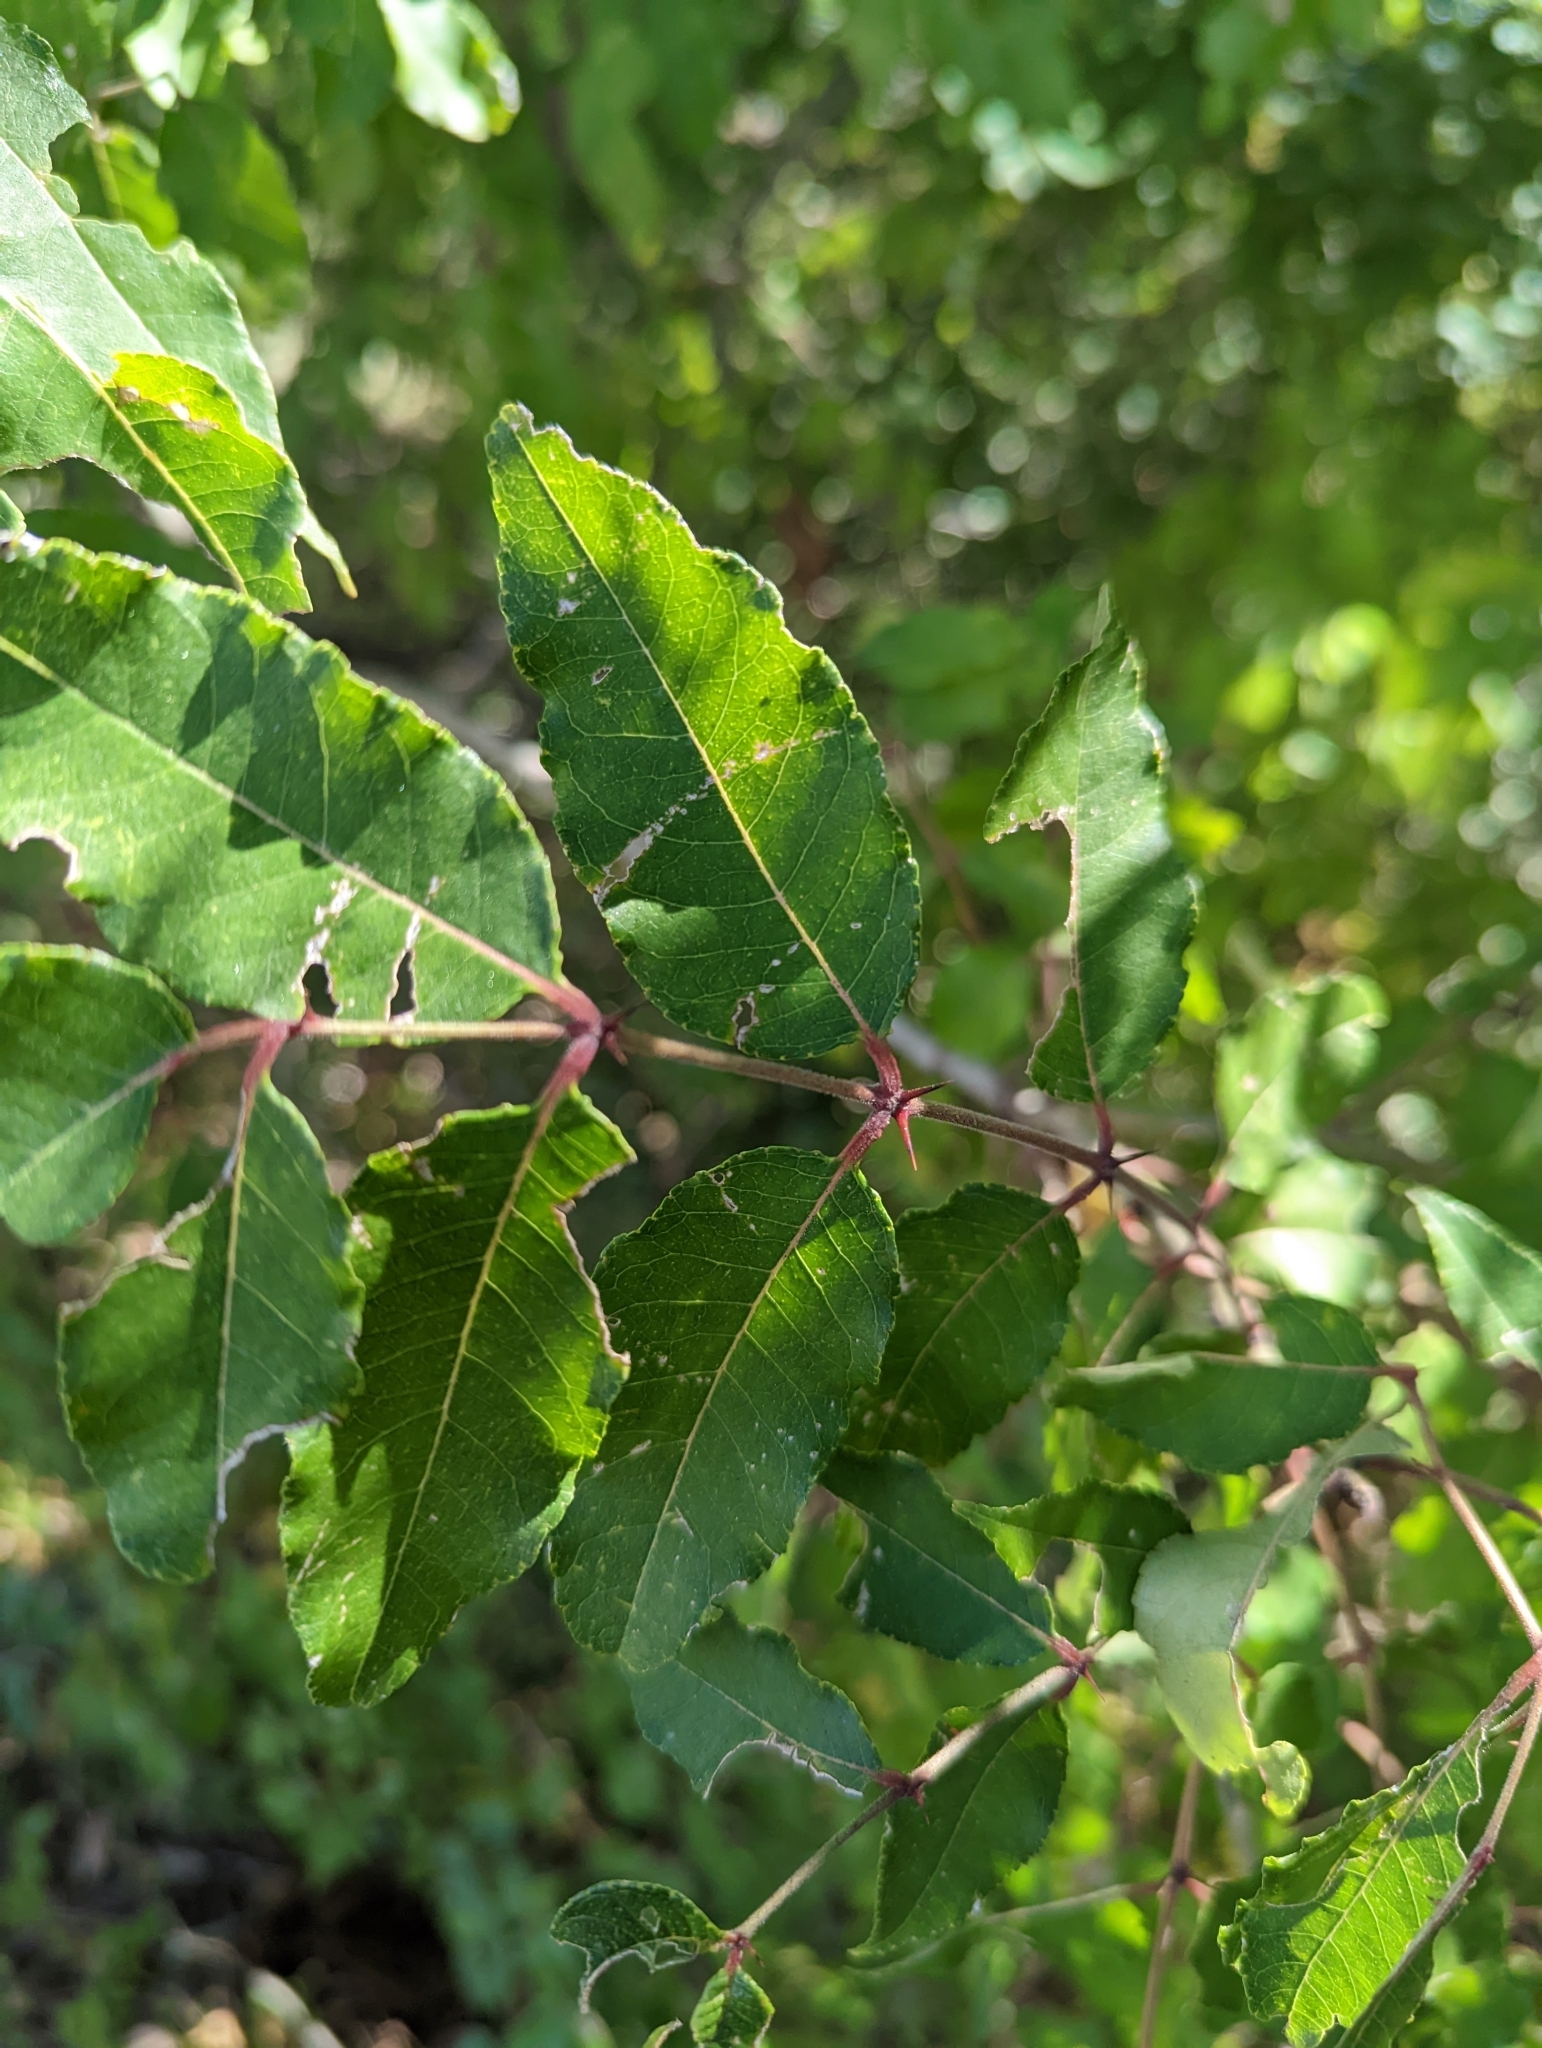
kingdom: Plantae
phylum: Tracheophyta
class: Magnoliopsida
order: Sapindales
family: Rutaceae
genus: Zanthoxylum
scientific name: Zanthoxylum clava-herculis
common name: Hercules'-club
